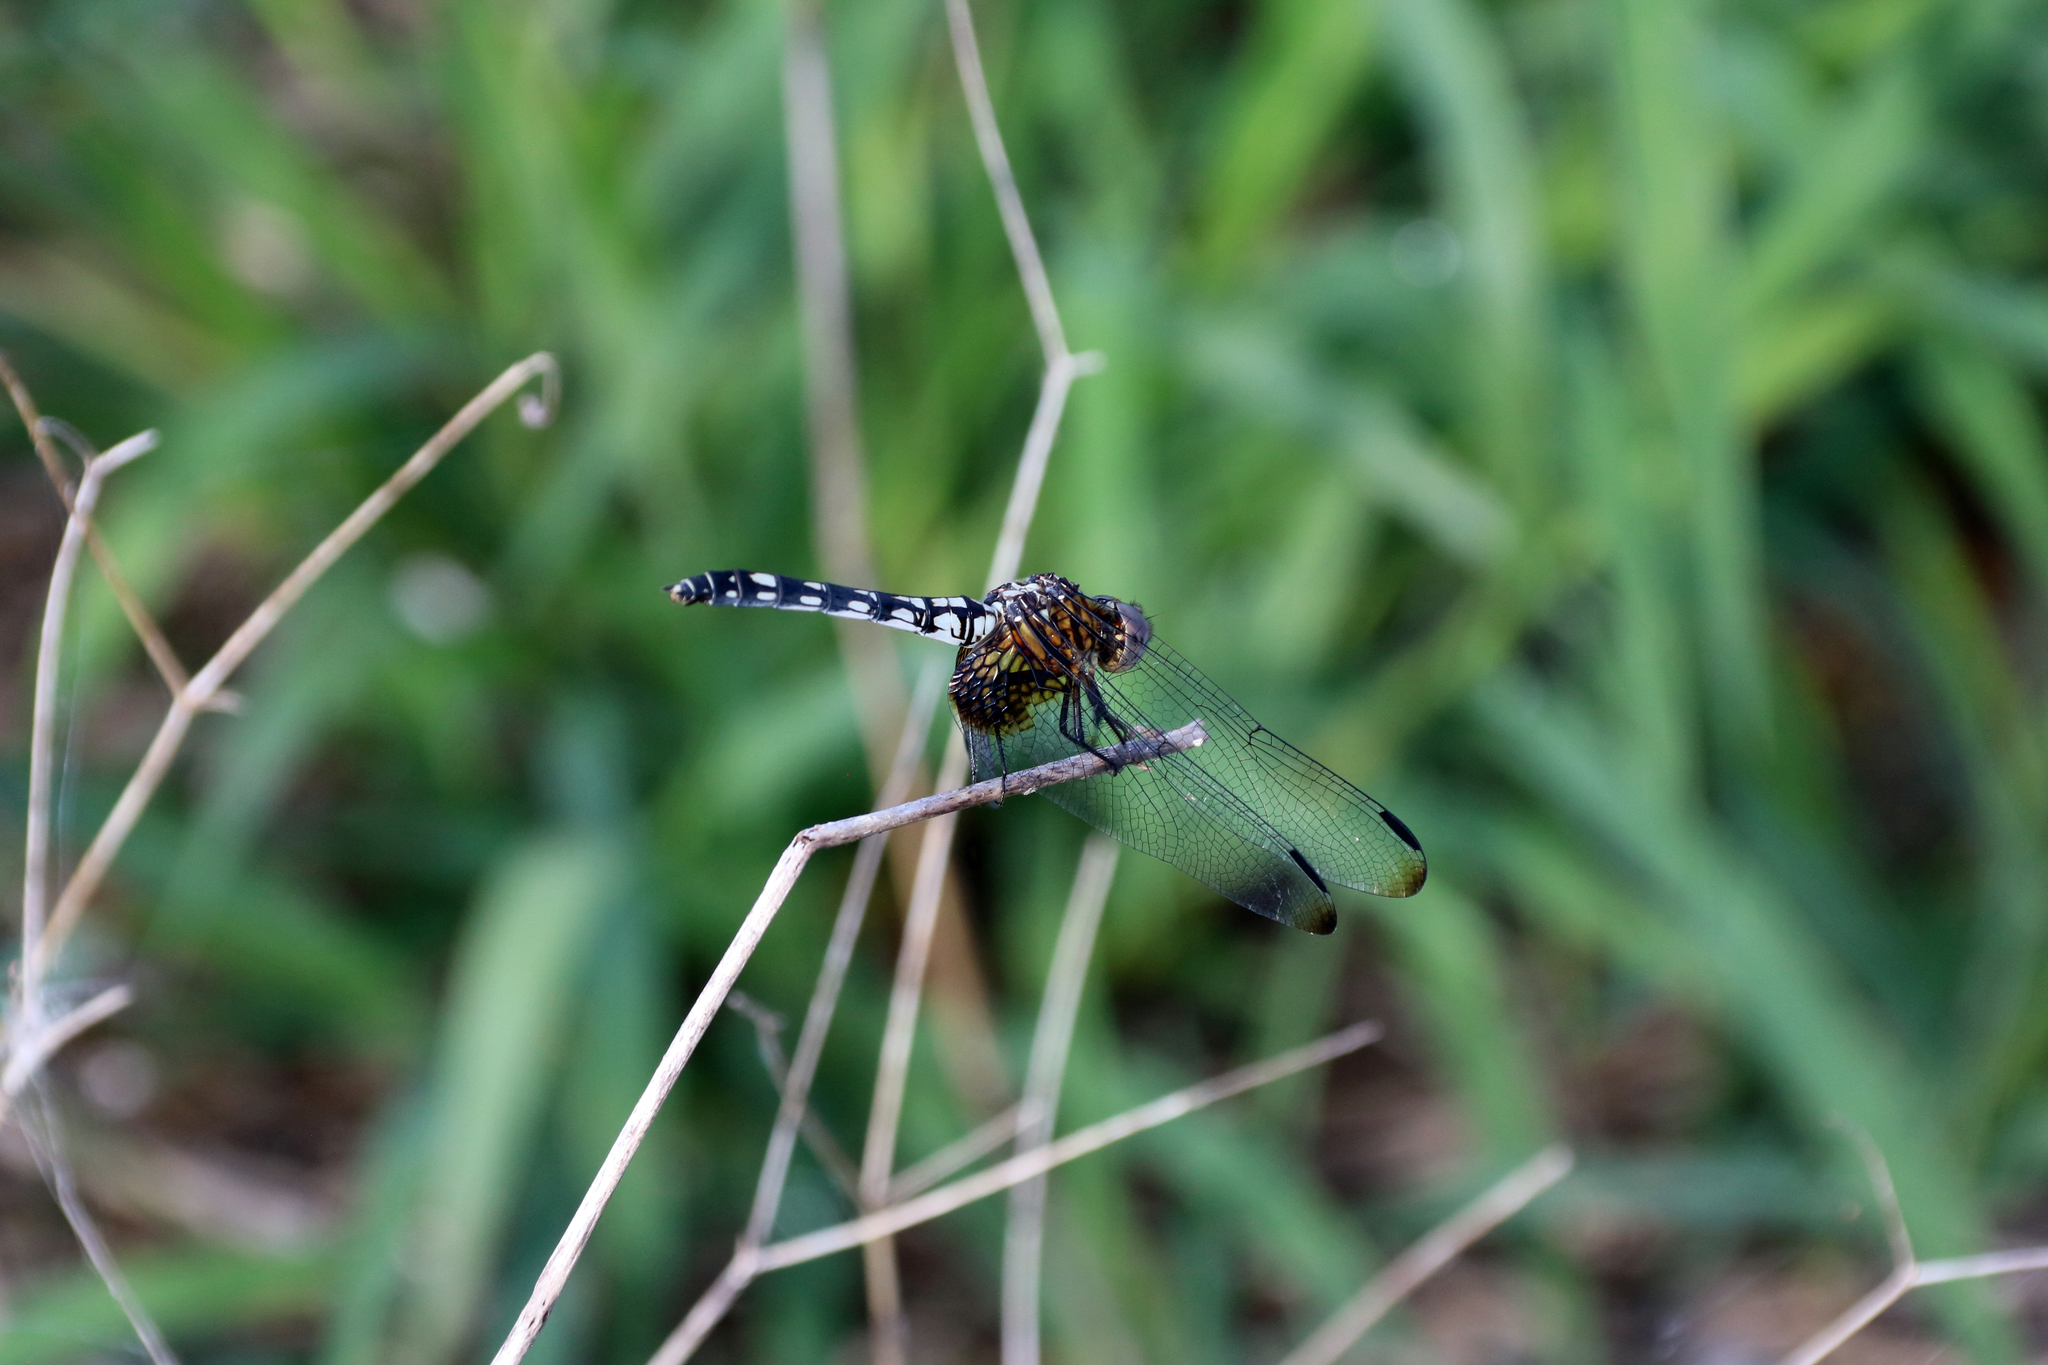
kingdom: Animalia
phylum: Arthropoda
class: Insecta
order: Odonata
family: Libellulidae
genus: Dythemis
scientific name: Dythemis fugax
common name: Checkered setwing
